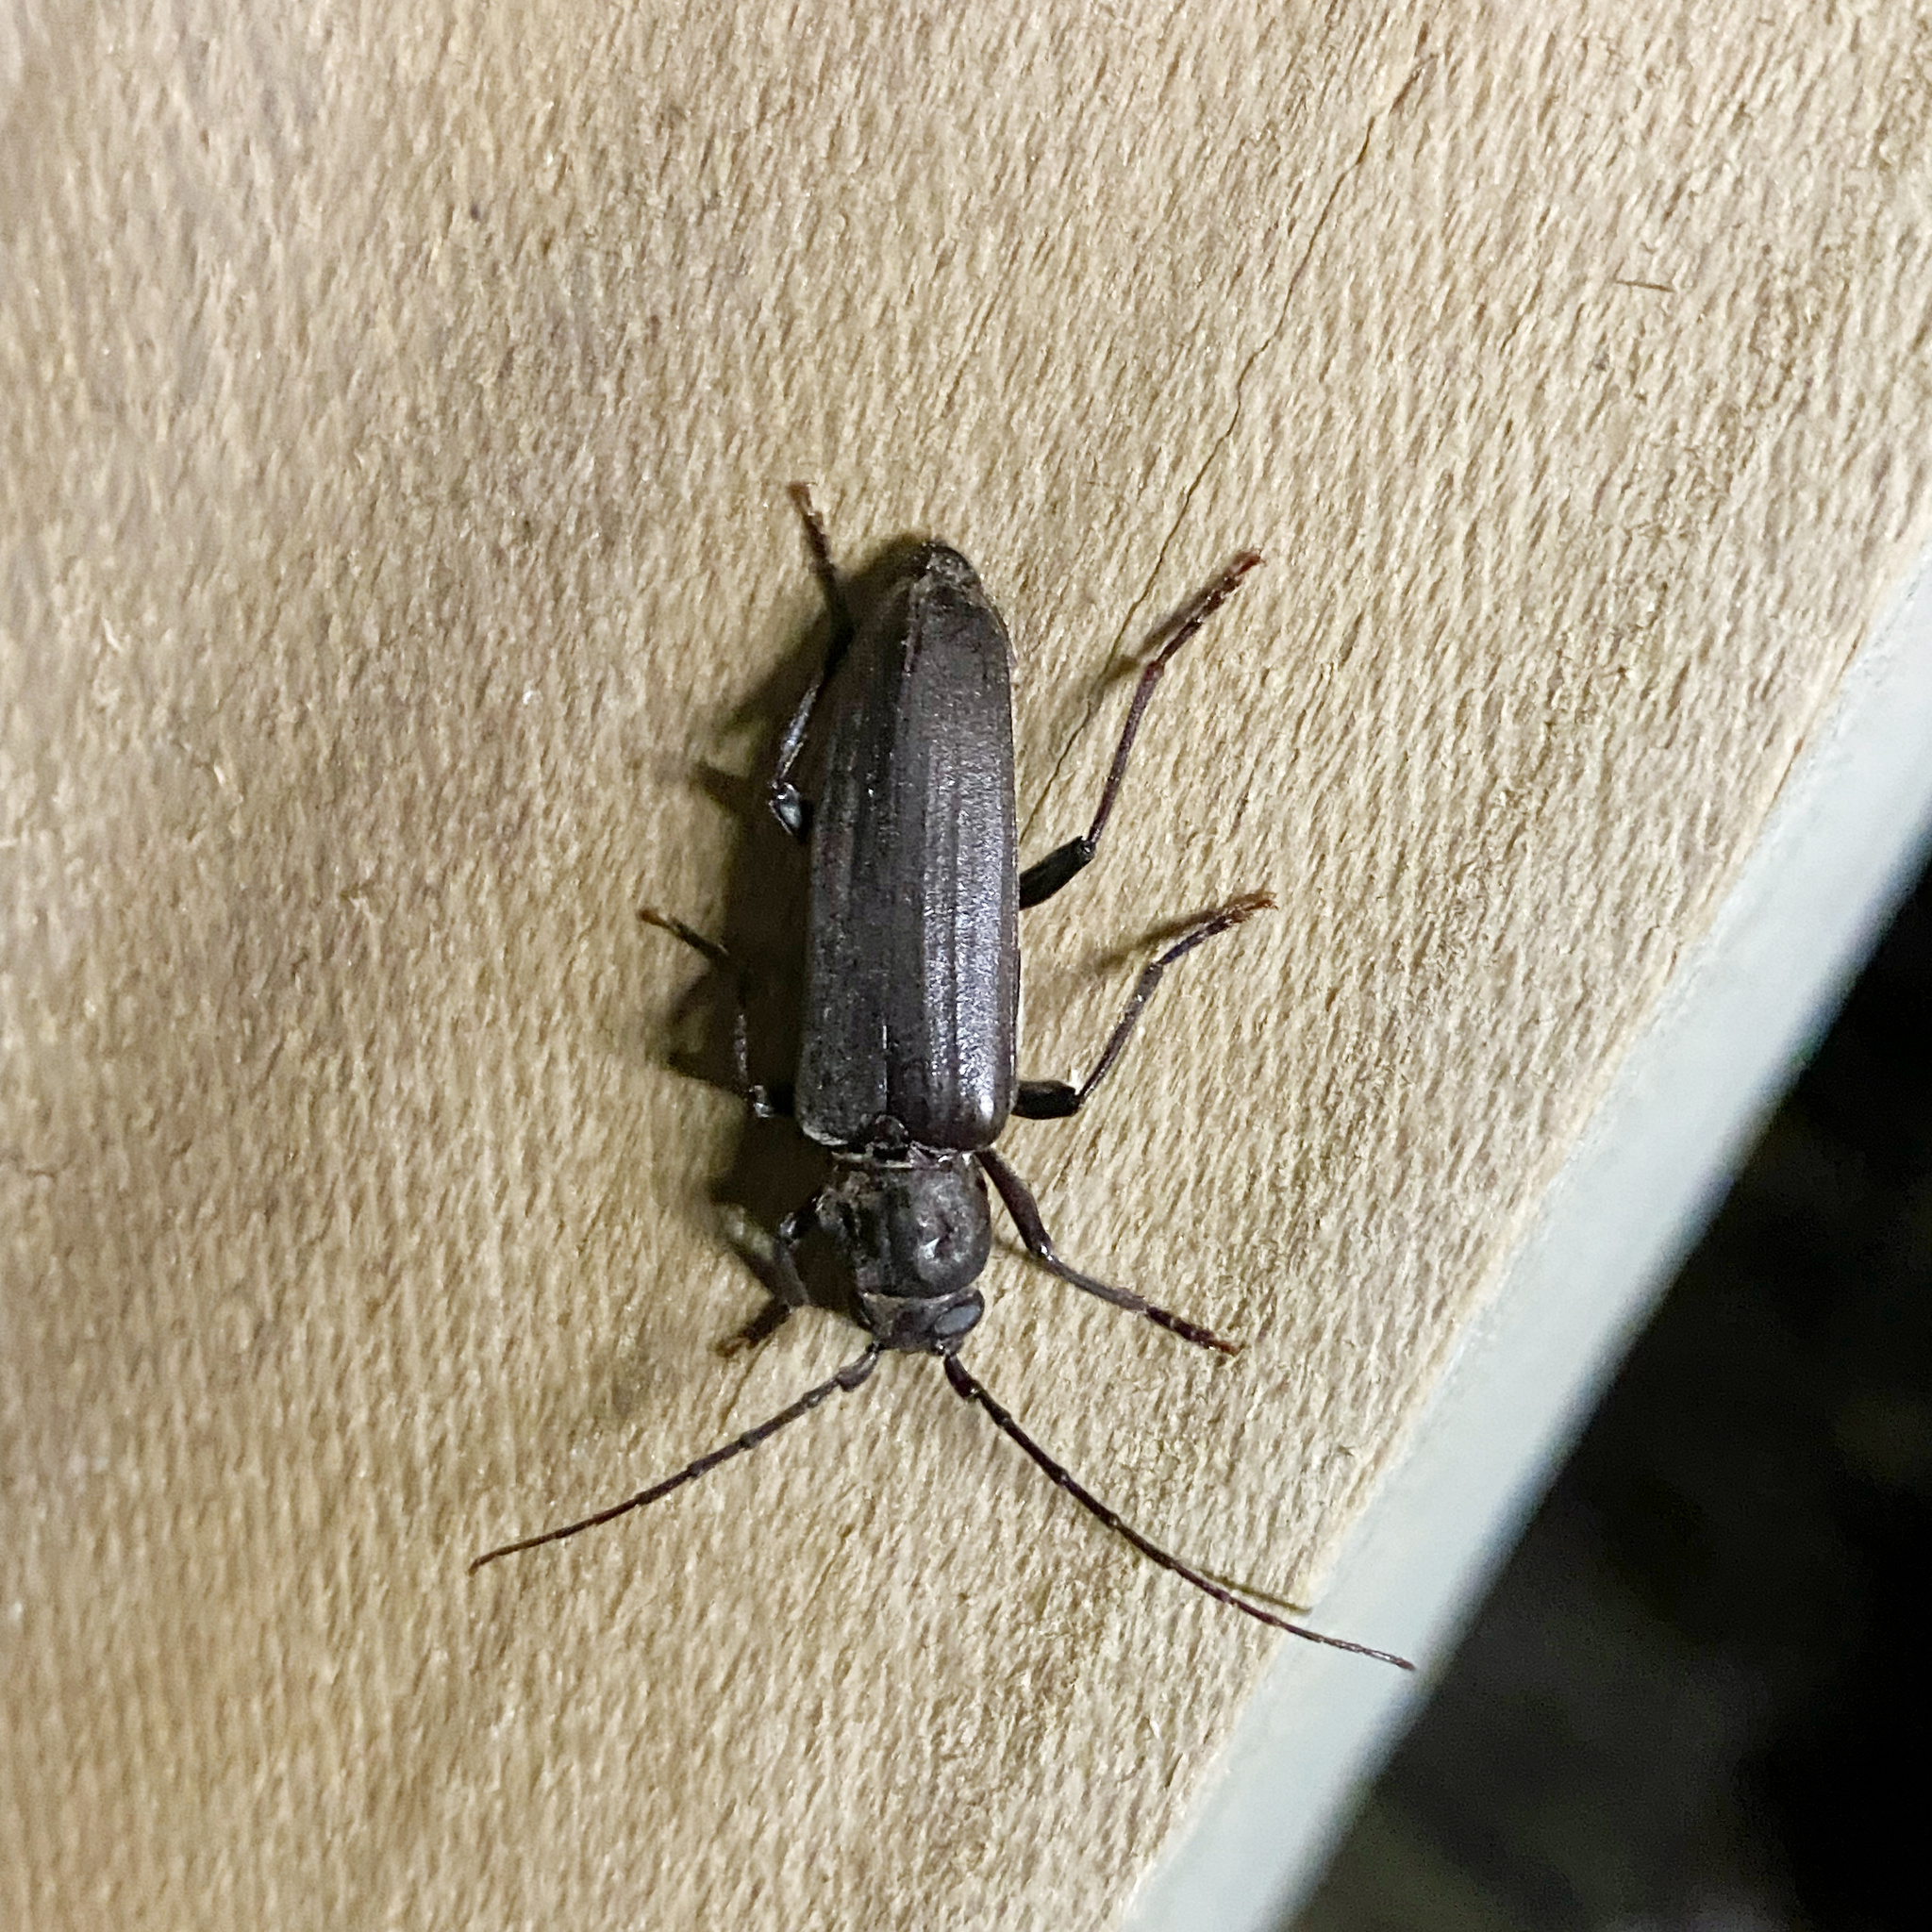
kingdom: Animalia
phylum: Arthropoda
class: Insecta
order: Coleoptera
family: Cerambycidae
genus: Arhopalus
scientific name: Arhopalus ferus
